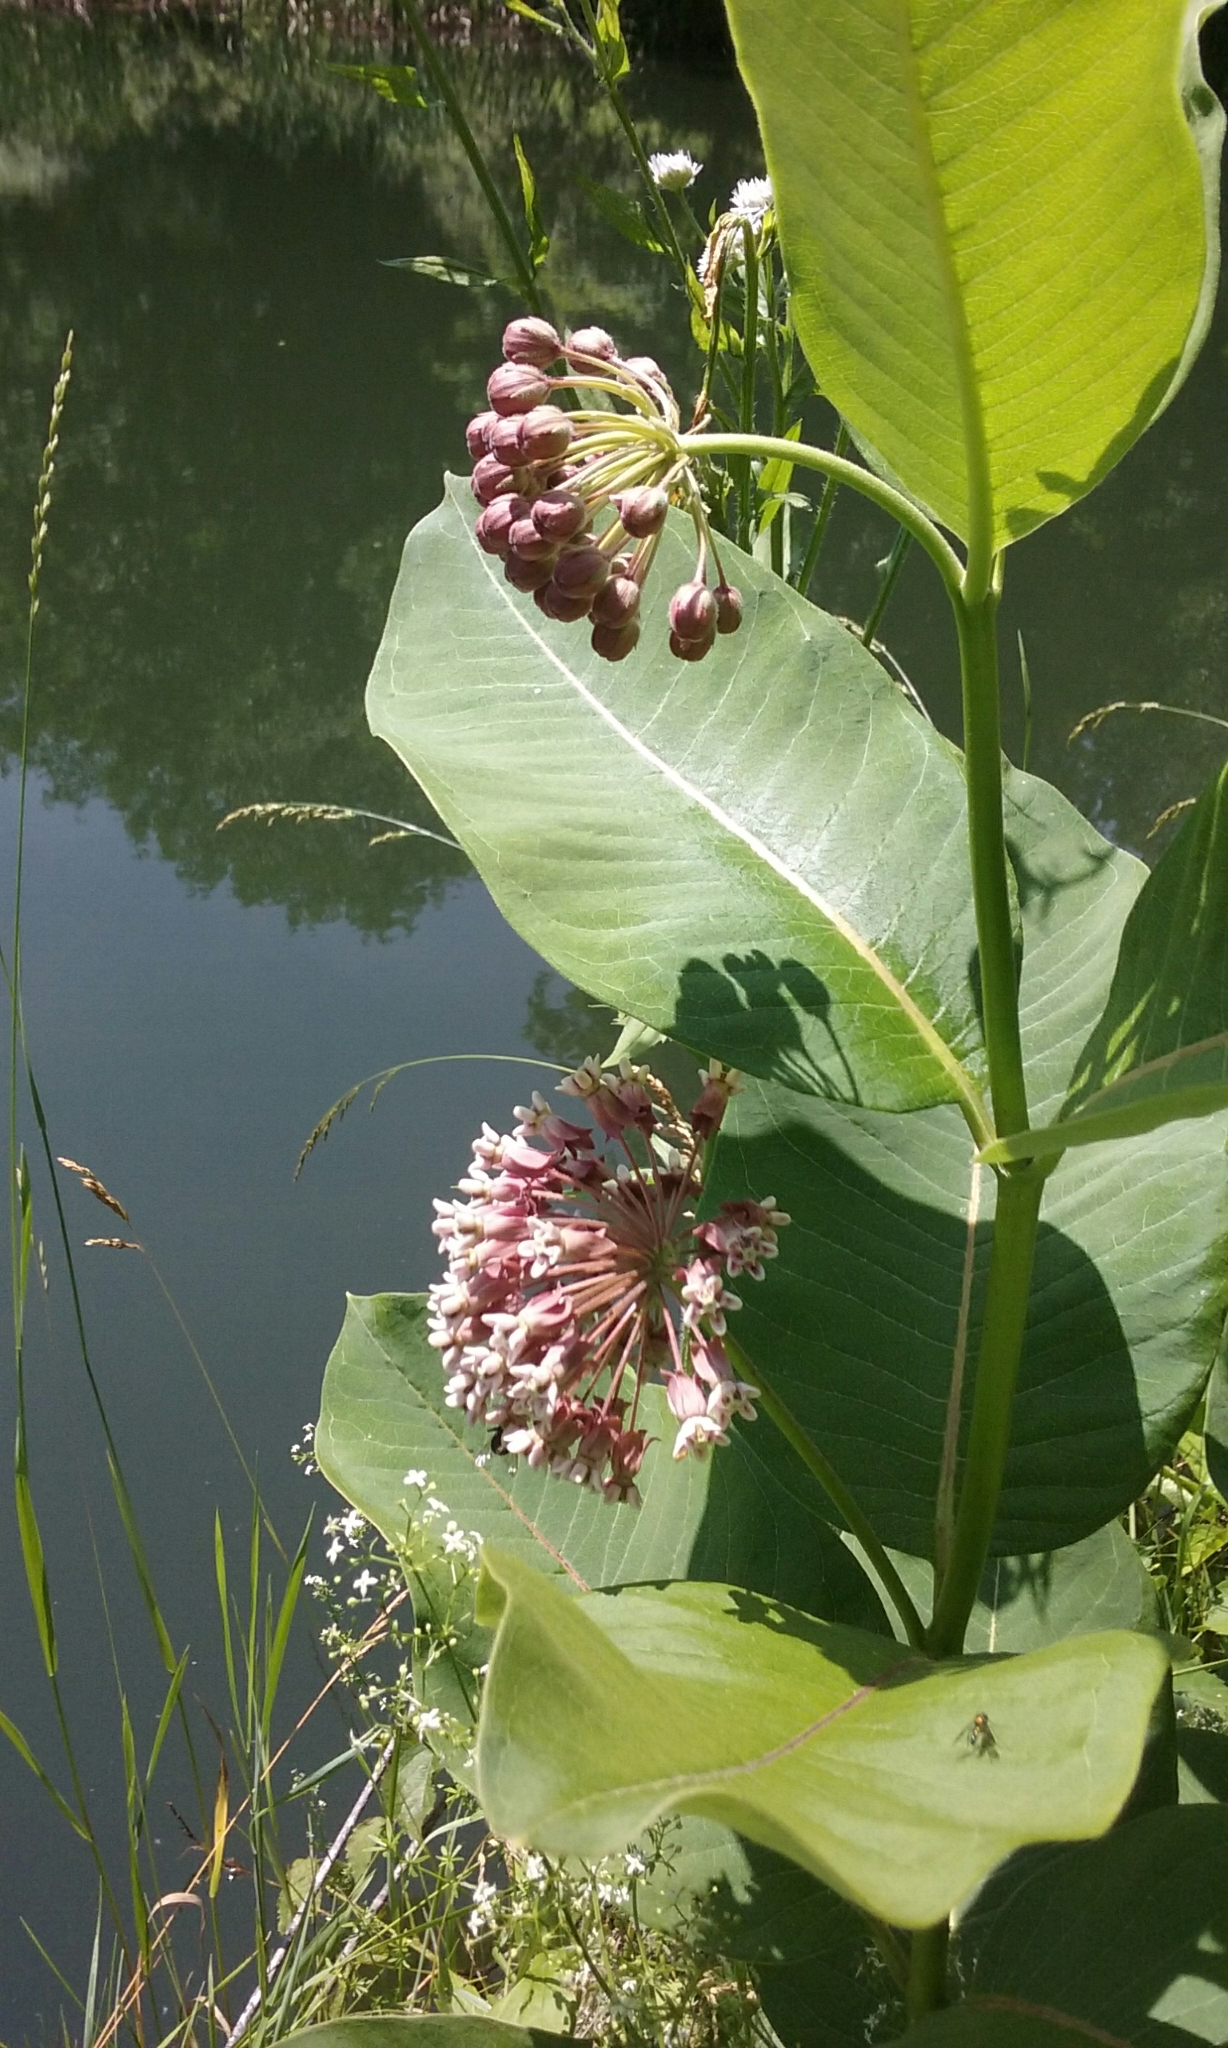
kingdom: Plantae
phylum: Tracheophyta
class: Magnoliopsida
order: Gentianales
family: Apocynaceae
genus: Asclepias
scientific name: Asclepias syriaca
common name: Common milkweed
